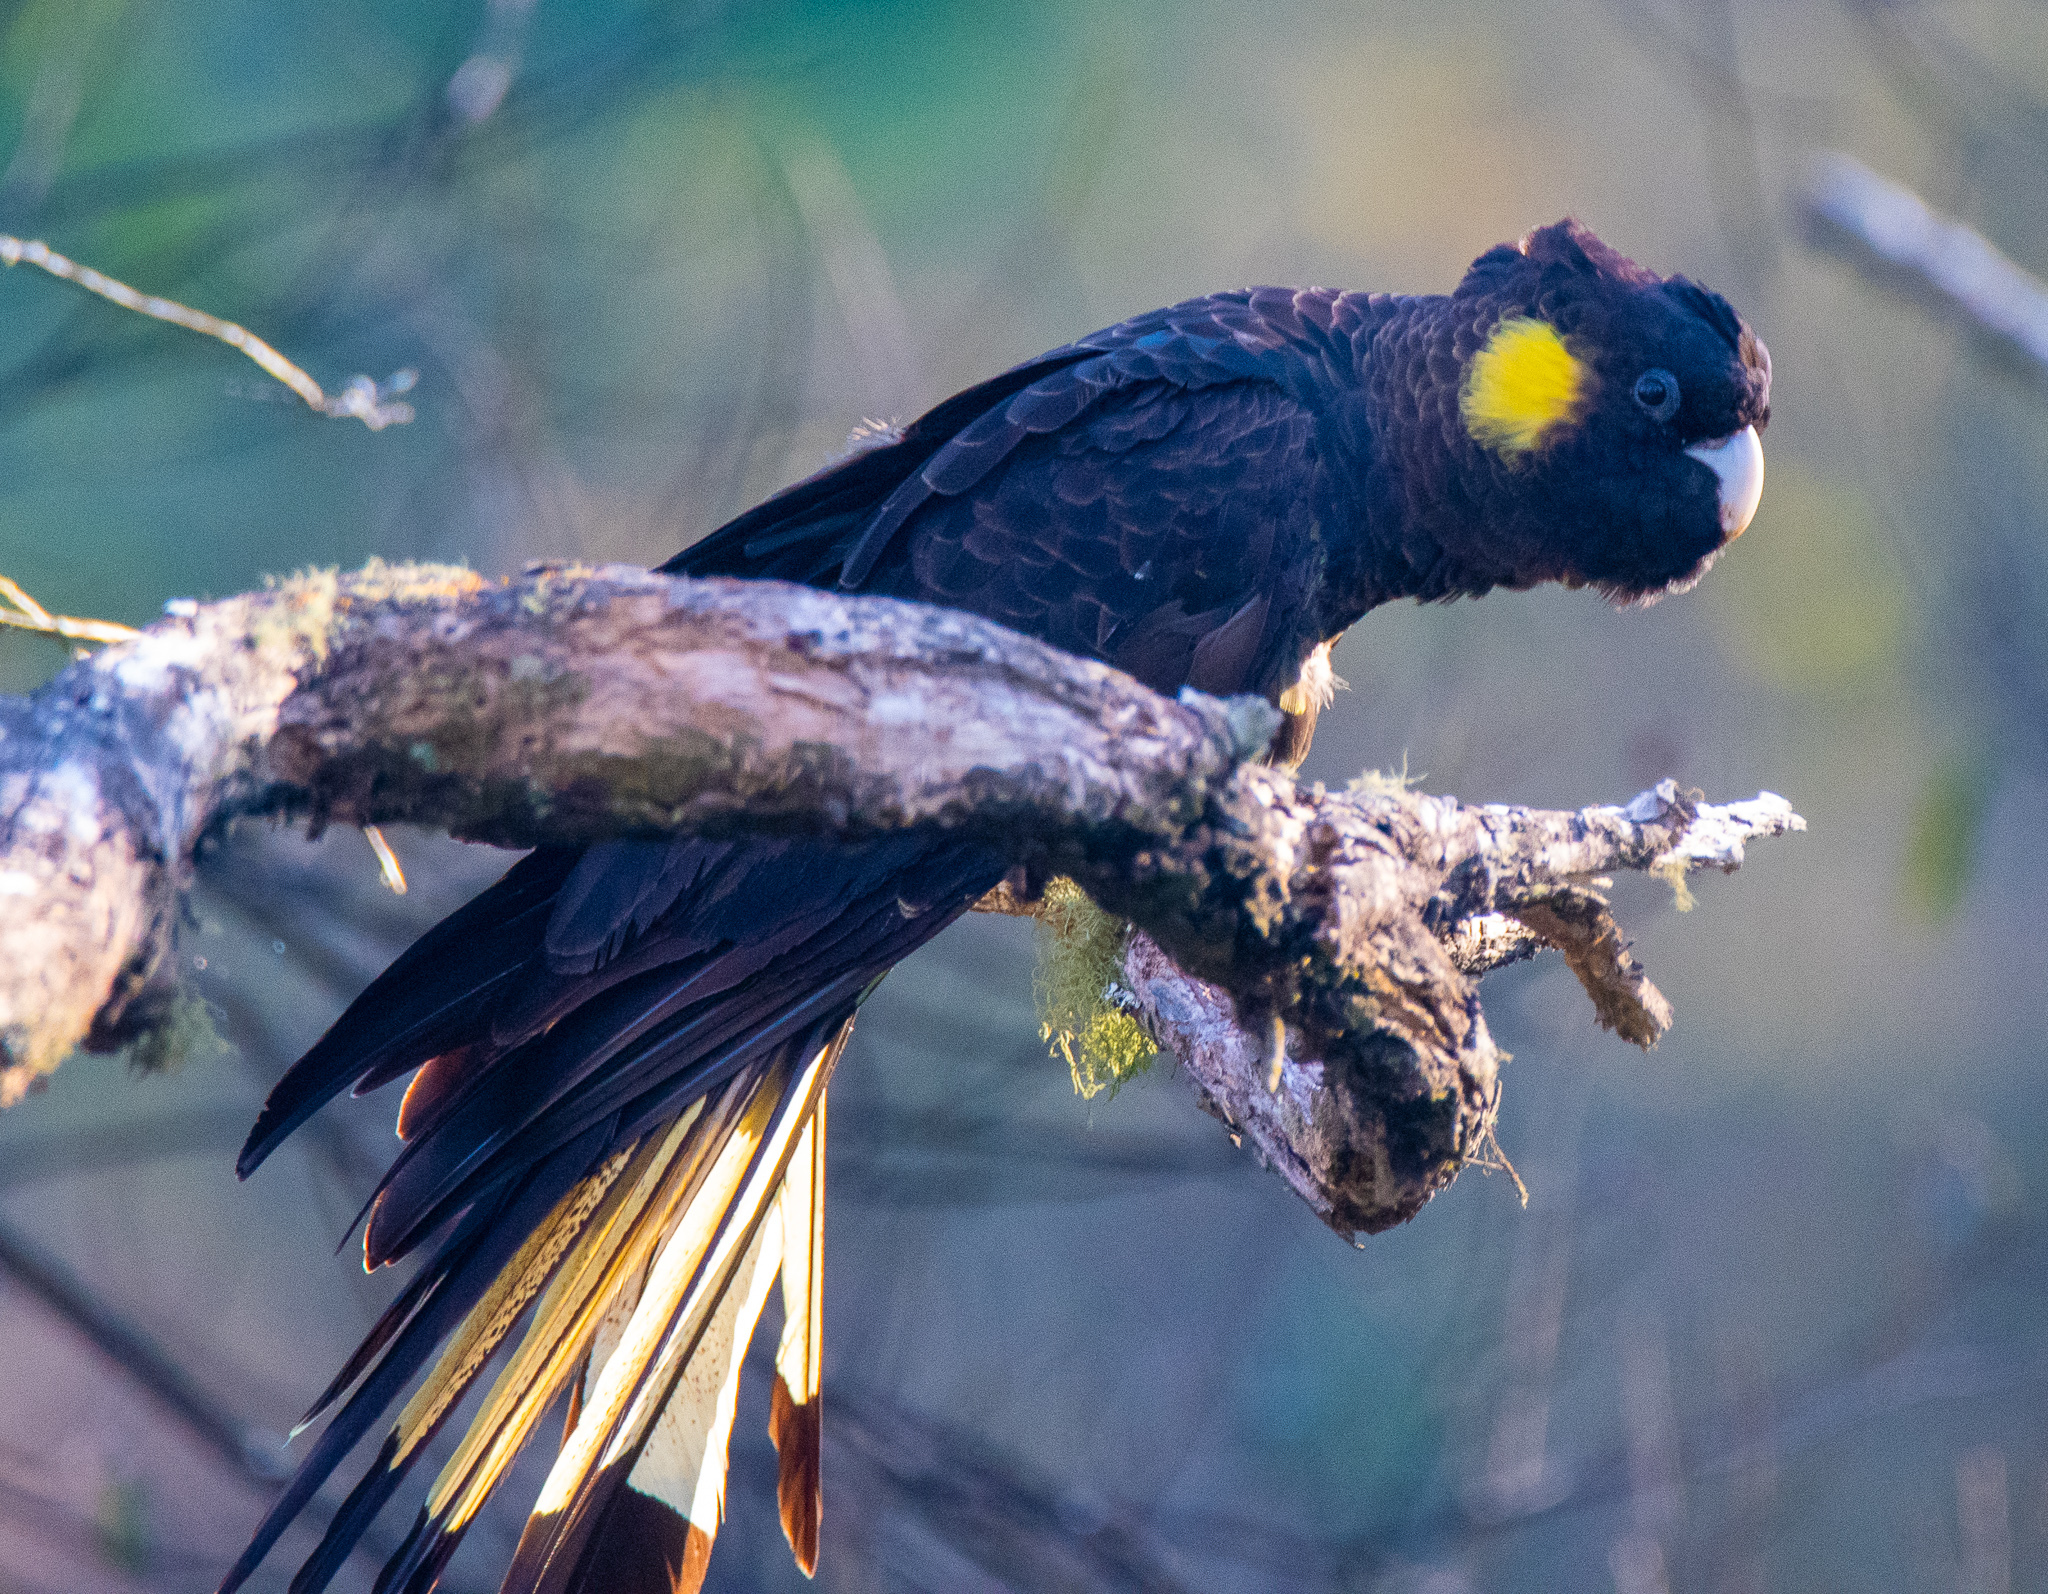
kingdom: Animalia
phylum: Chordata
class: Aves
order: Psittaciformes
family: Cacatuidae
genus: Zanda
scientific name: Zanda funerea
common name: Yellow-tailed black-cockatoo
